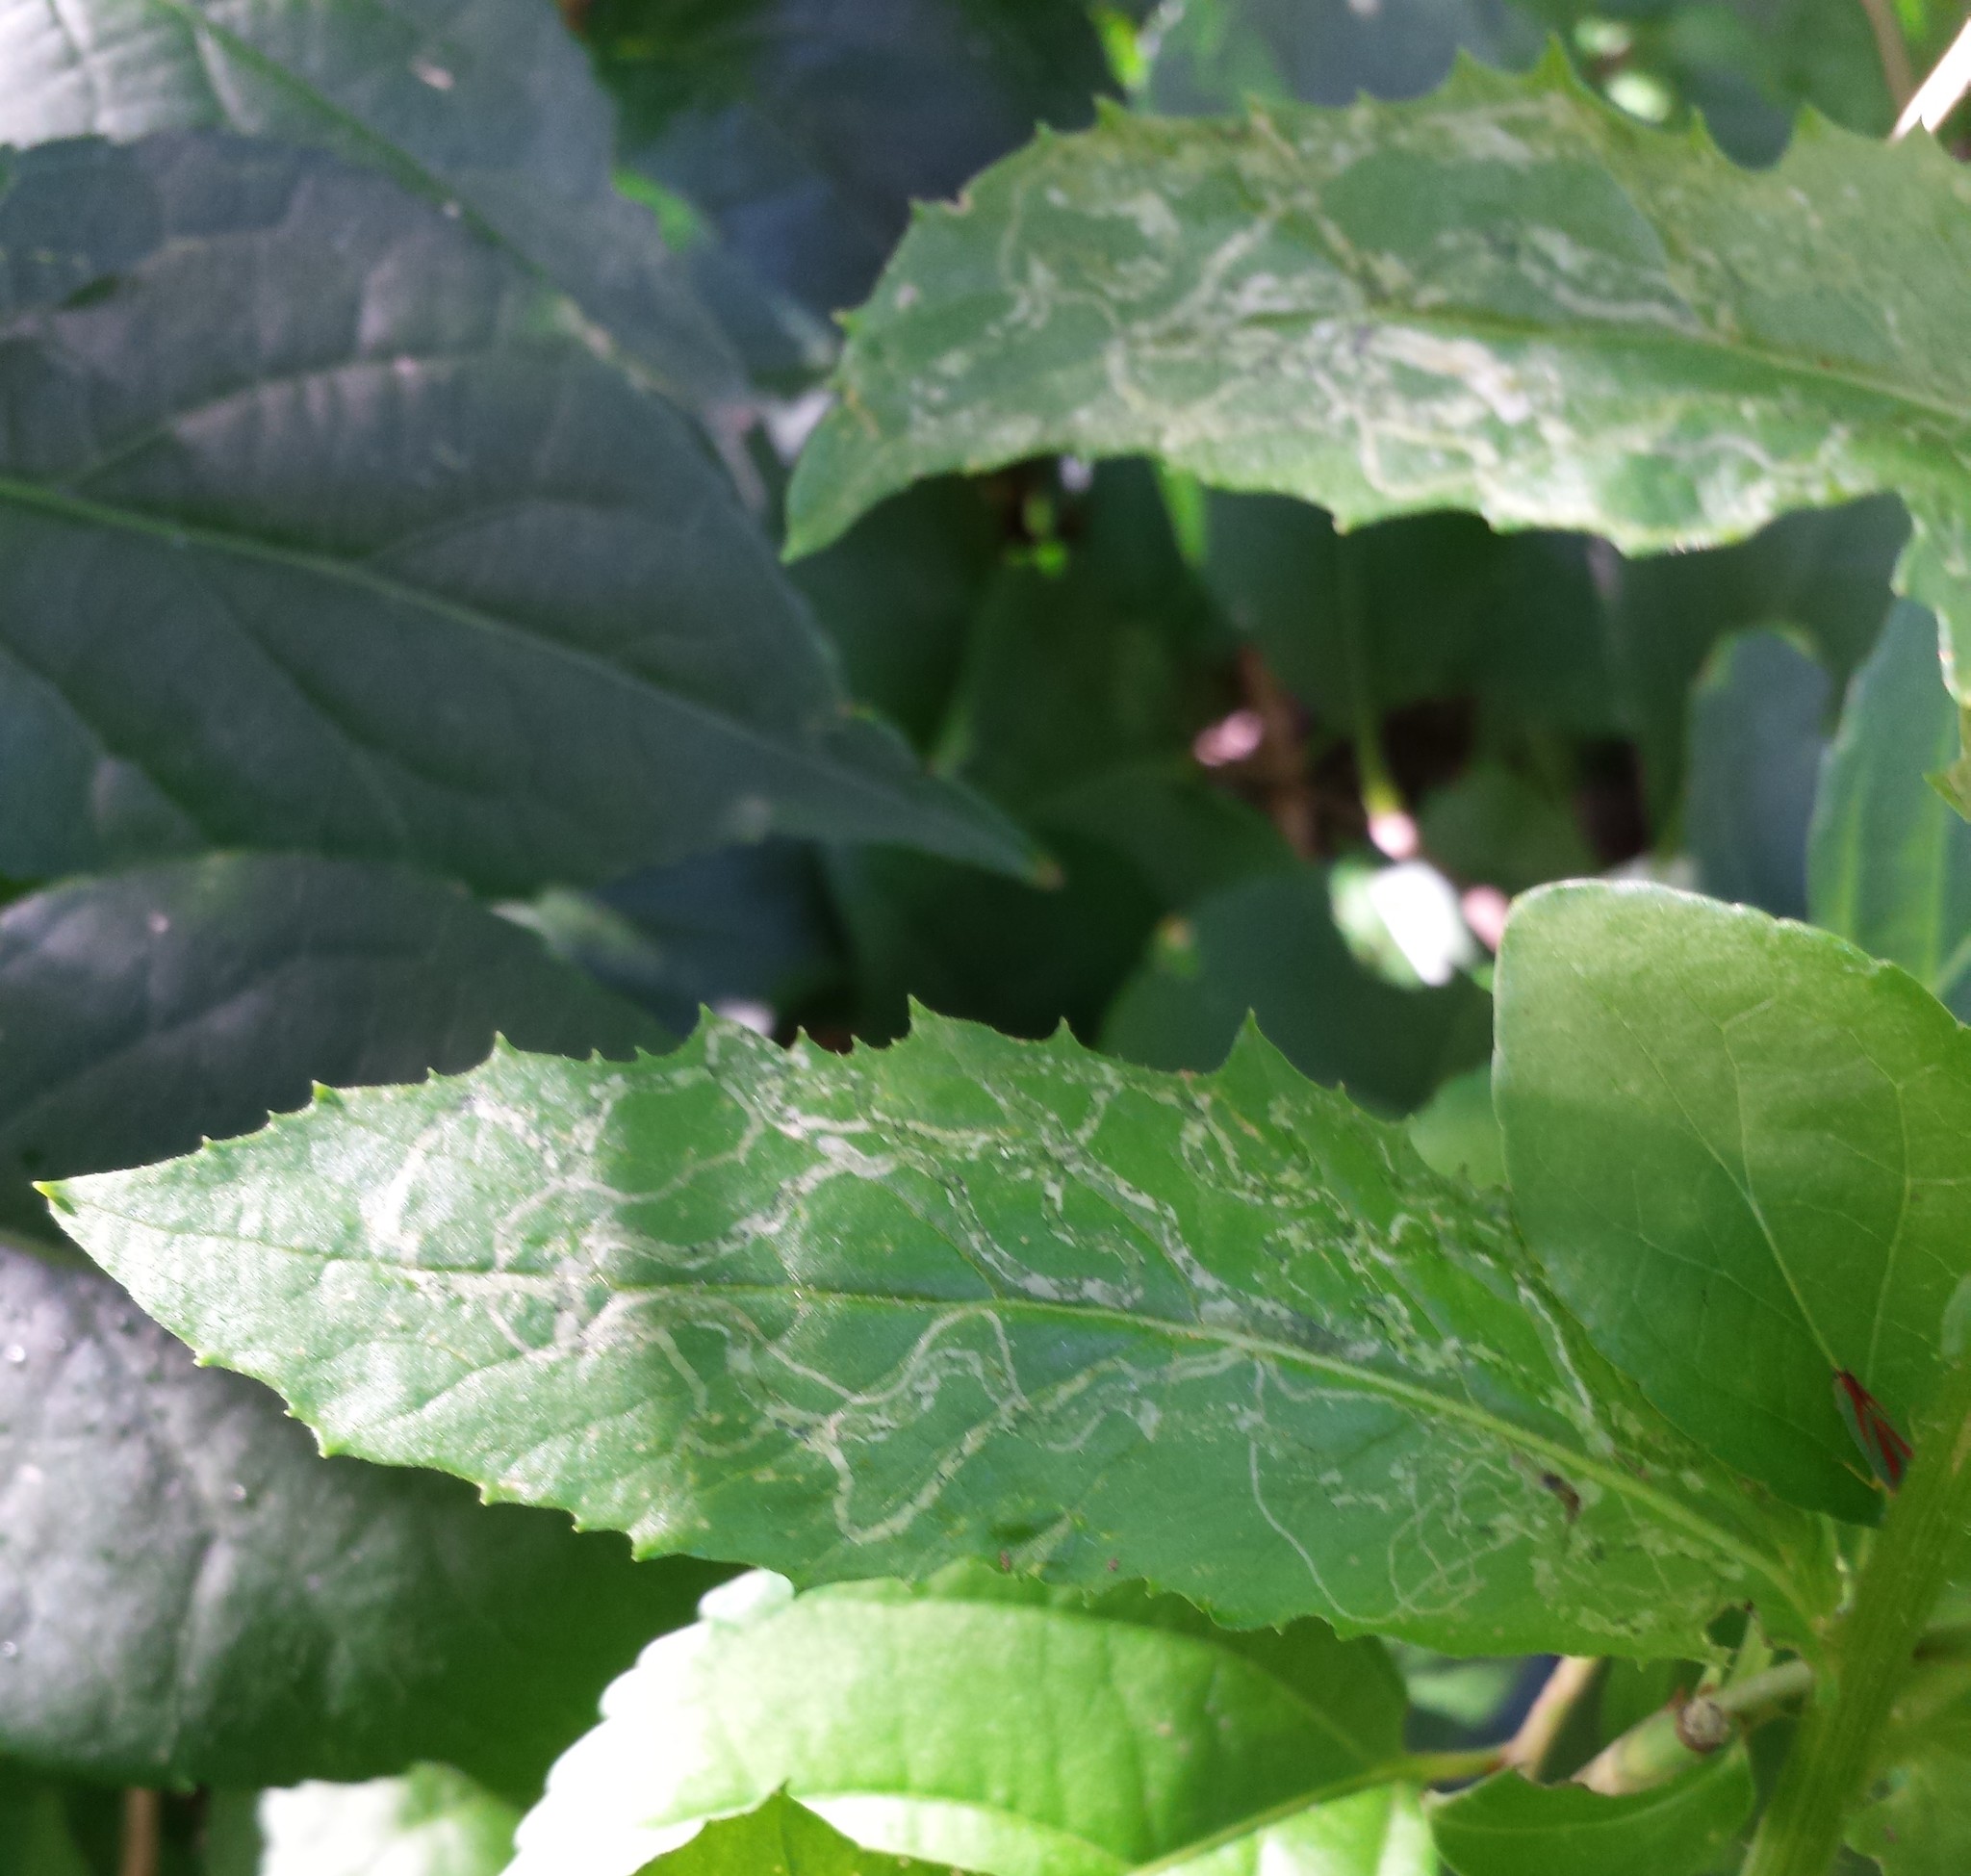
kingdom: Animalia
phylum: Arthropoda
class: Insecta
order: Lepidoptera
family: Gracillariidae
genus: Phyllocnistis
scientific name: Phyllocnistis insignis
